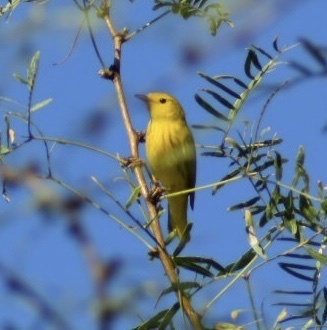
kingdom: Animalia
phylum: Chordata
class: Aves
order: Passeriformes
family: Parulidae
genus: Setophaga
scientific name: Setophaga petechia
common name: Yellow warbler
